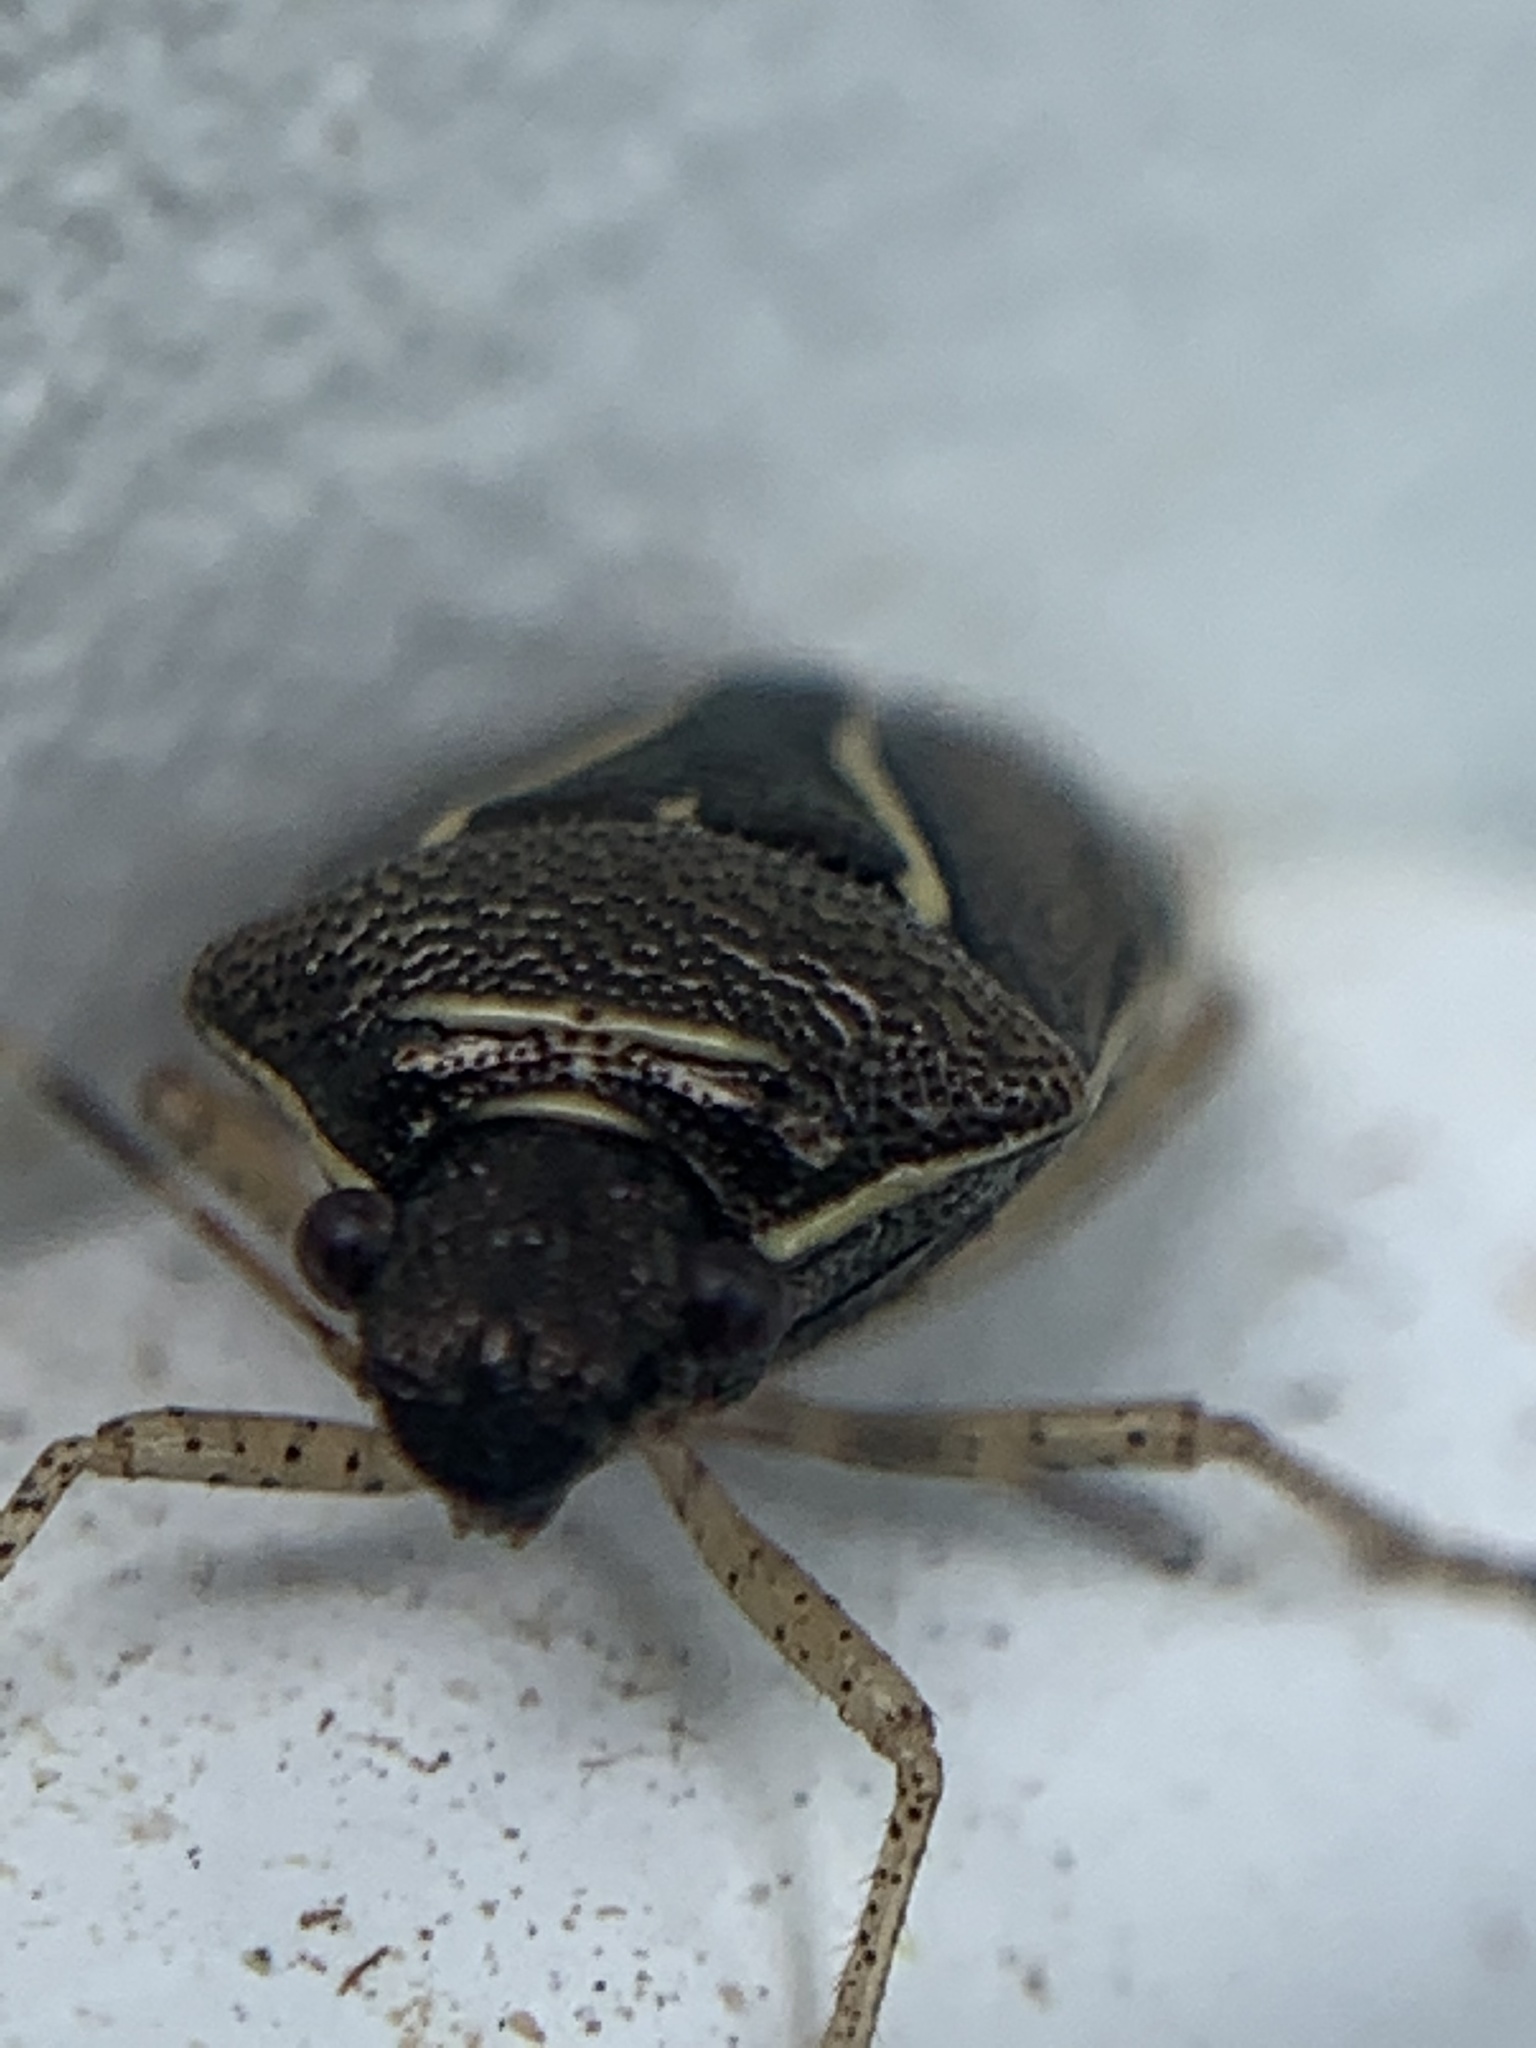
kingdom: Animalia
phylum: Arthropoda
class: Insecta
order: Hemiptera
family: Pentatomidae
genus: Mormidea
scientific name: Mormidea lugens
